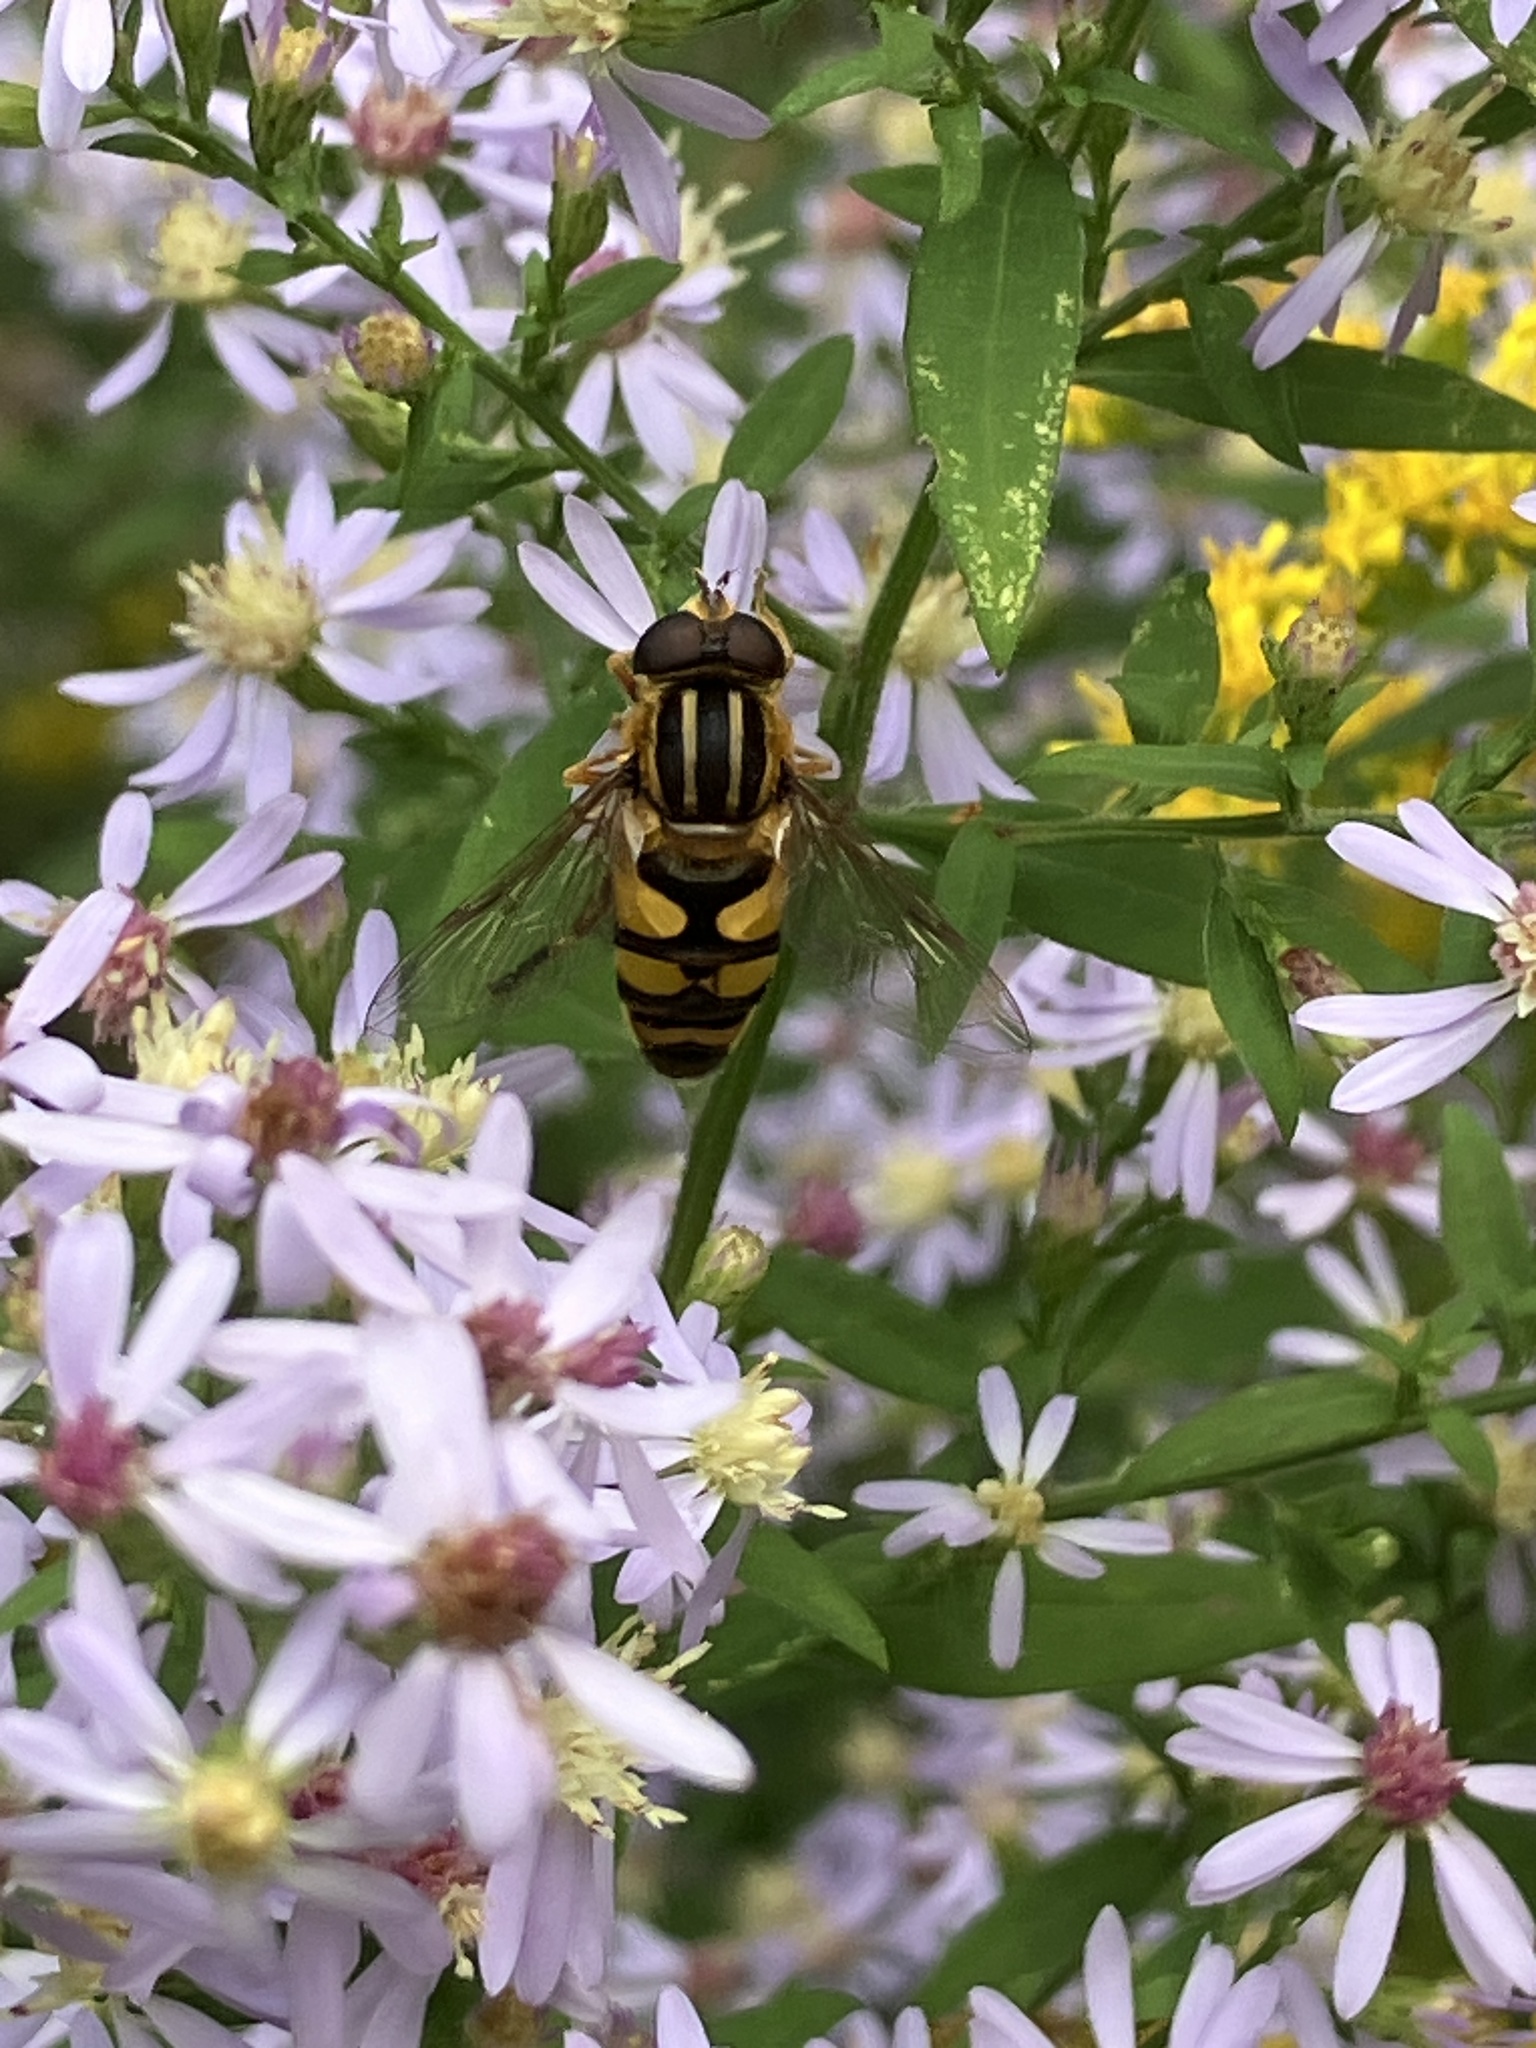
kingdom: Animalia
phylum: Arthropoda
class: Insecta
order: Diptera
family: Syrphidae
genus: Helophilus
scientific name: Helophilus fasciatus
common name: Narrow-headed marsh fly
